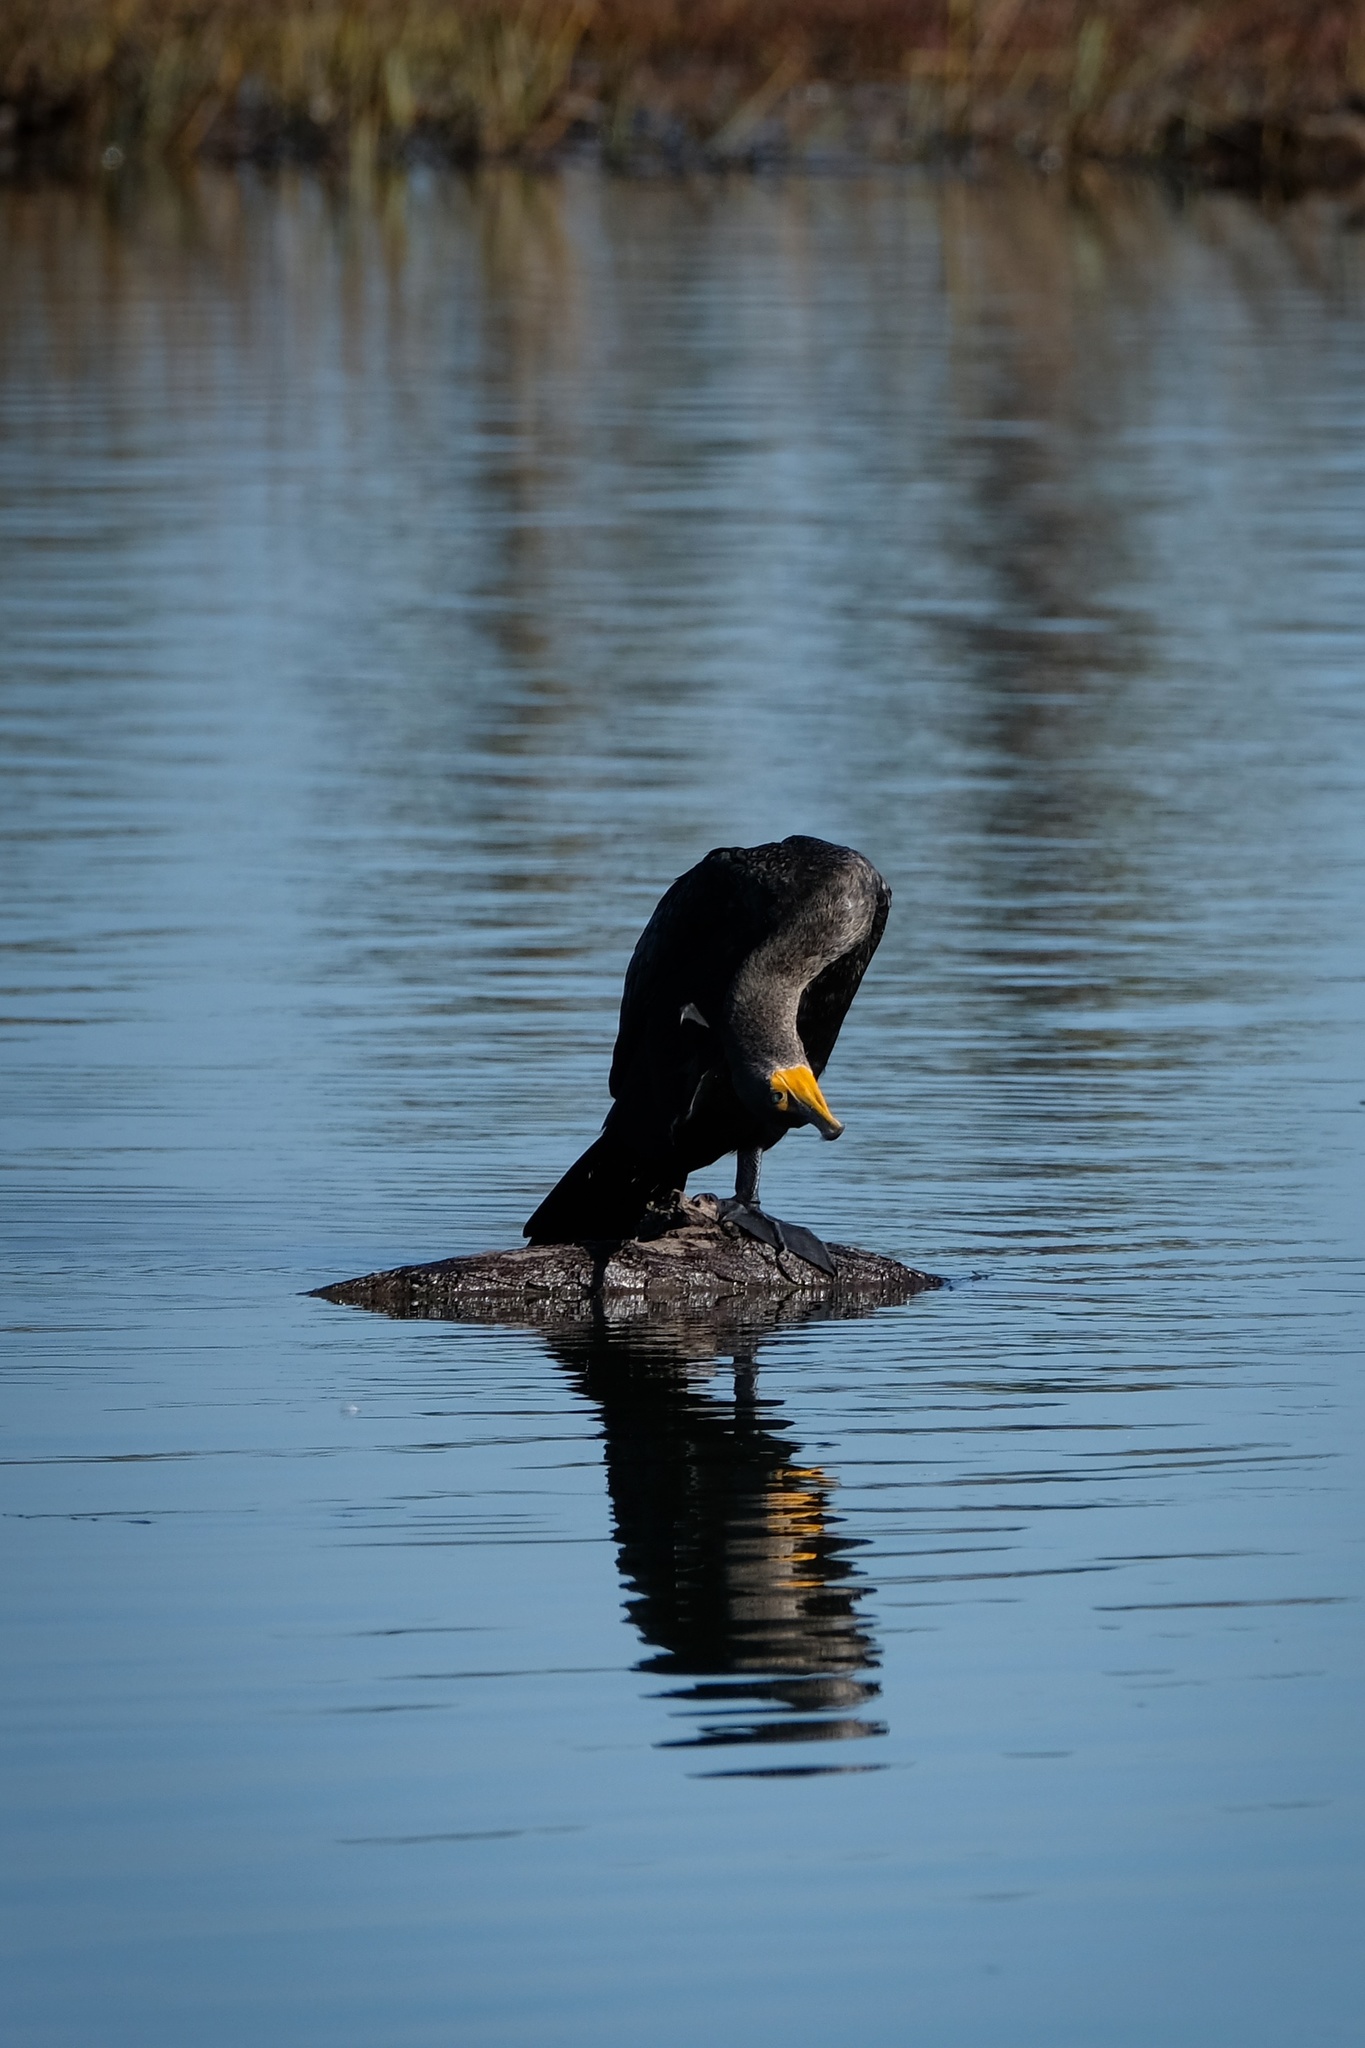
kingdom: Animalia
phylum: Chordata
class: Aves
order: Suliformes
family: Phalacrocoracidae
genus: Phalacrocorax
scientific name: Phalacrocorax auritus
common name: Double-crested cormorant
